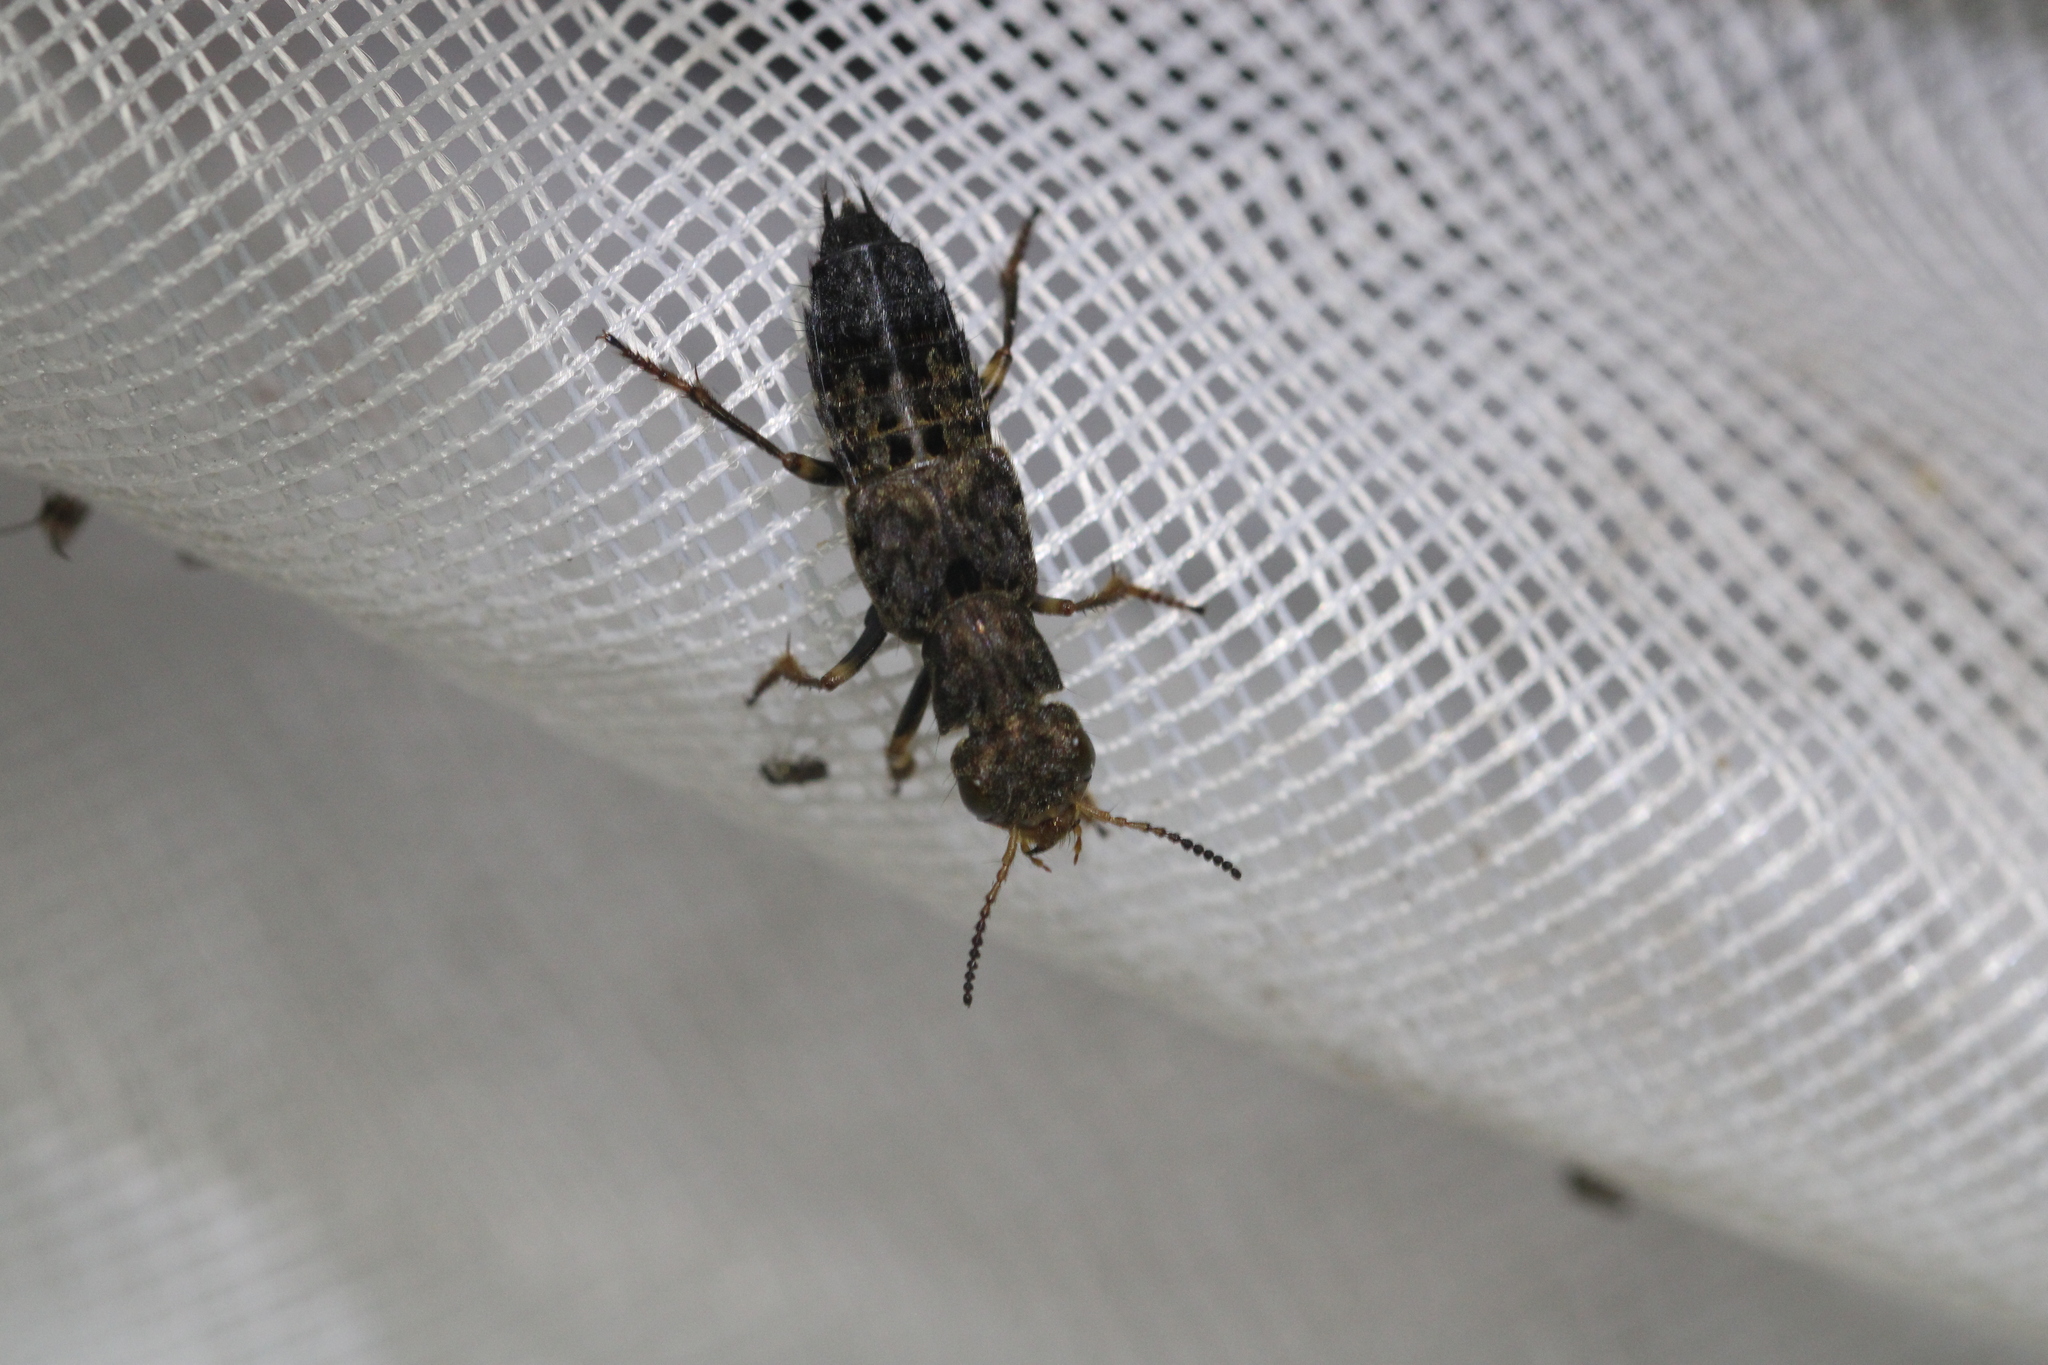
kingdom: Animalia
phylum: Arthropoda
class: Insecta
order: Coleoptera
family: Staphylinidae
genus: Ontholestes
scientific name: Ontholestes tessellatus
